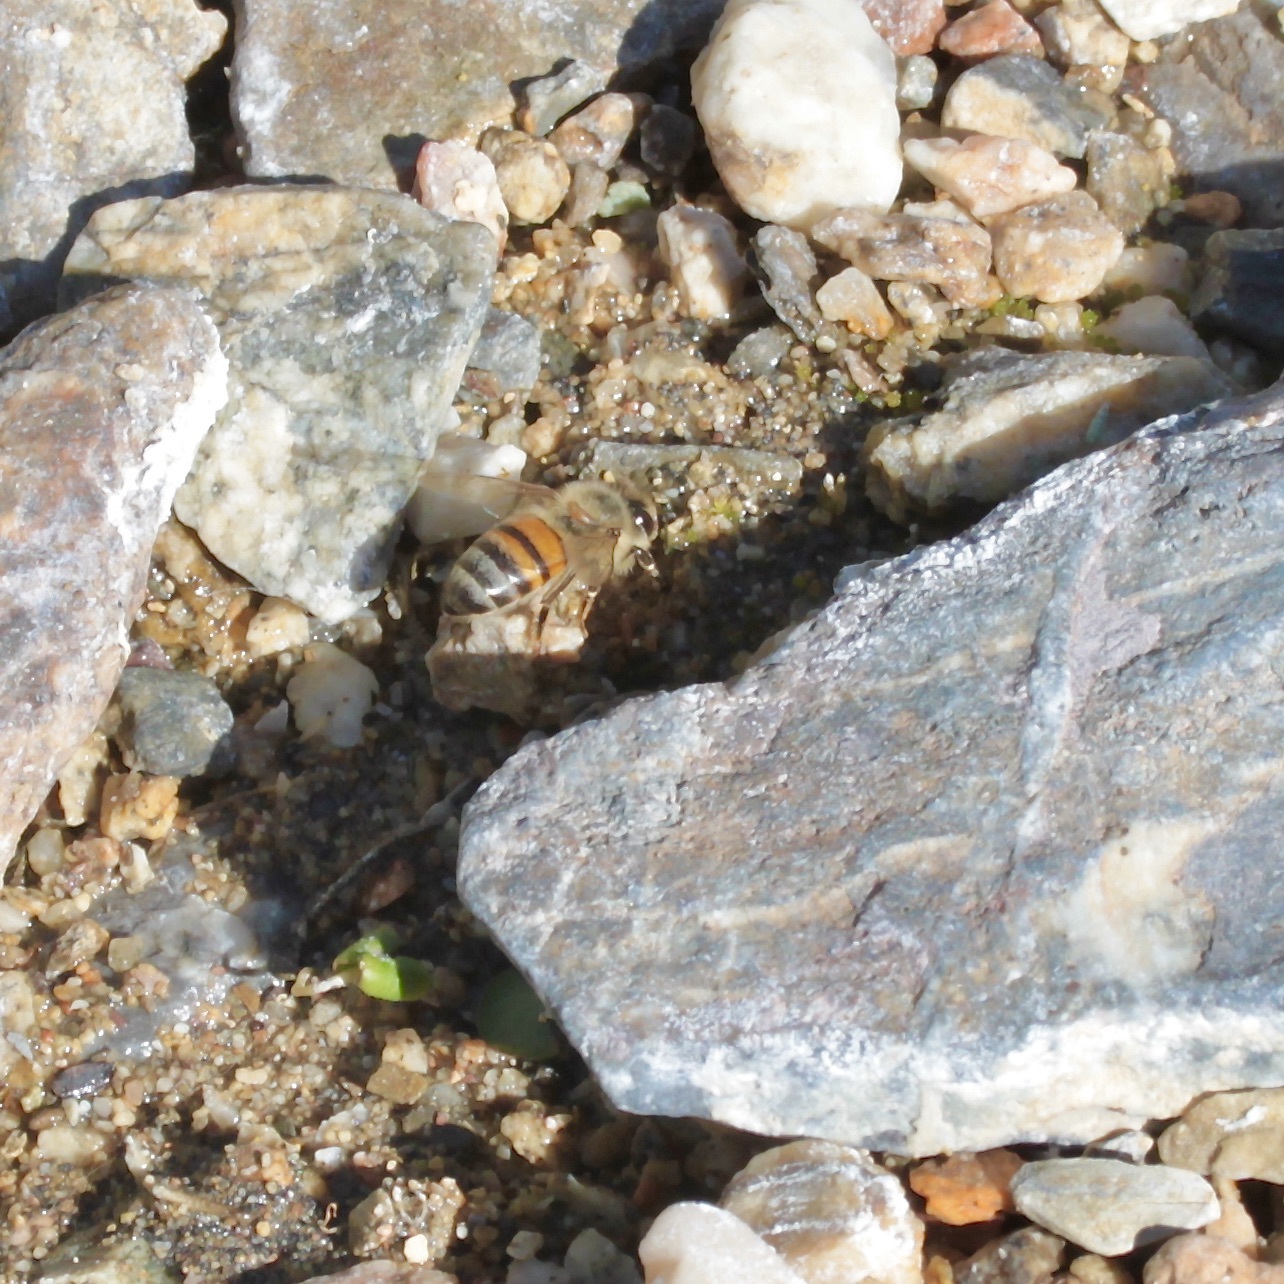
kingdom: Animalia
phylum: Arthropoda
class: Insecta
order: Hymenoptera
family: Apidae
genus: Apis
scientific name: Apis mellifera
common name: Honey bee
